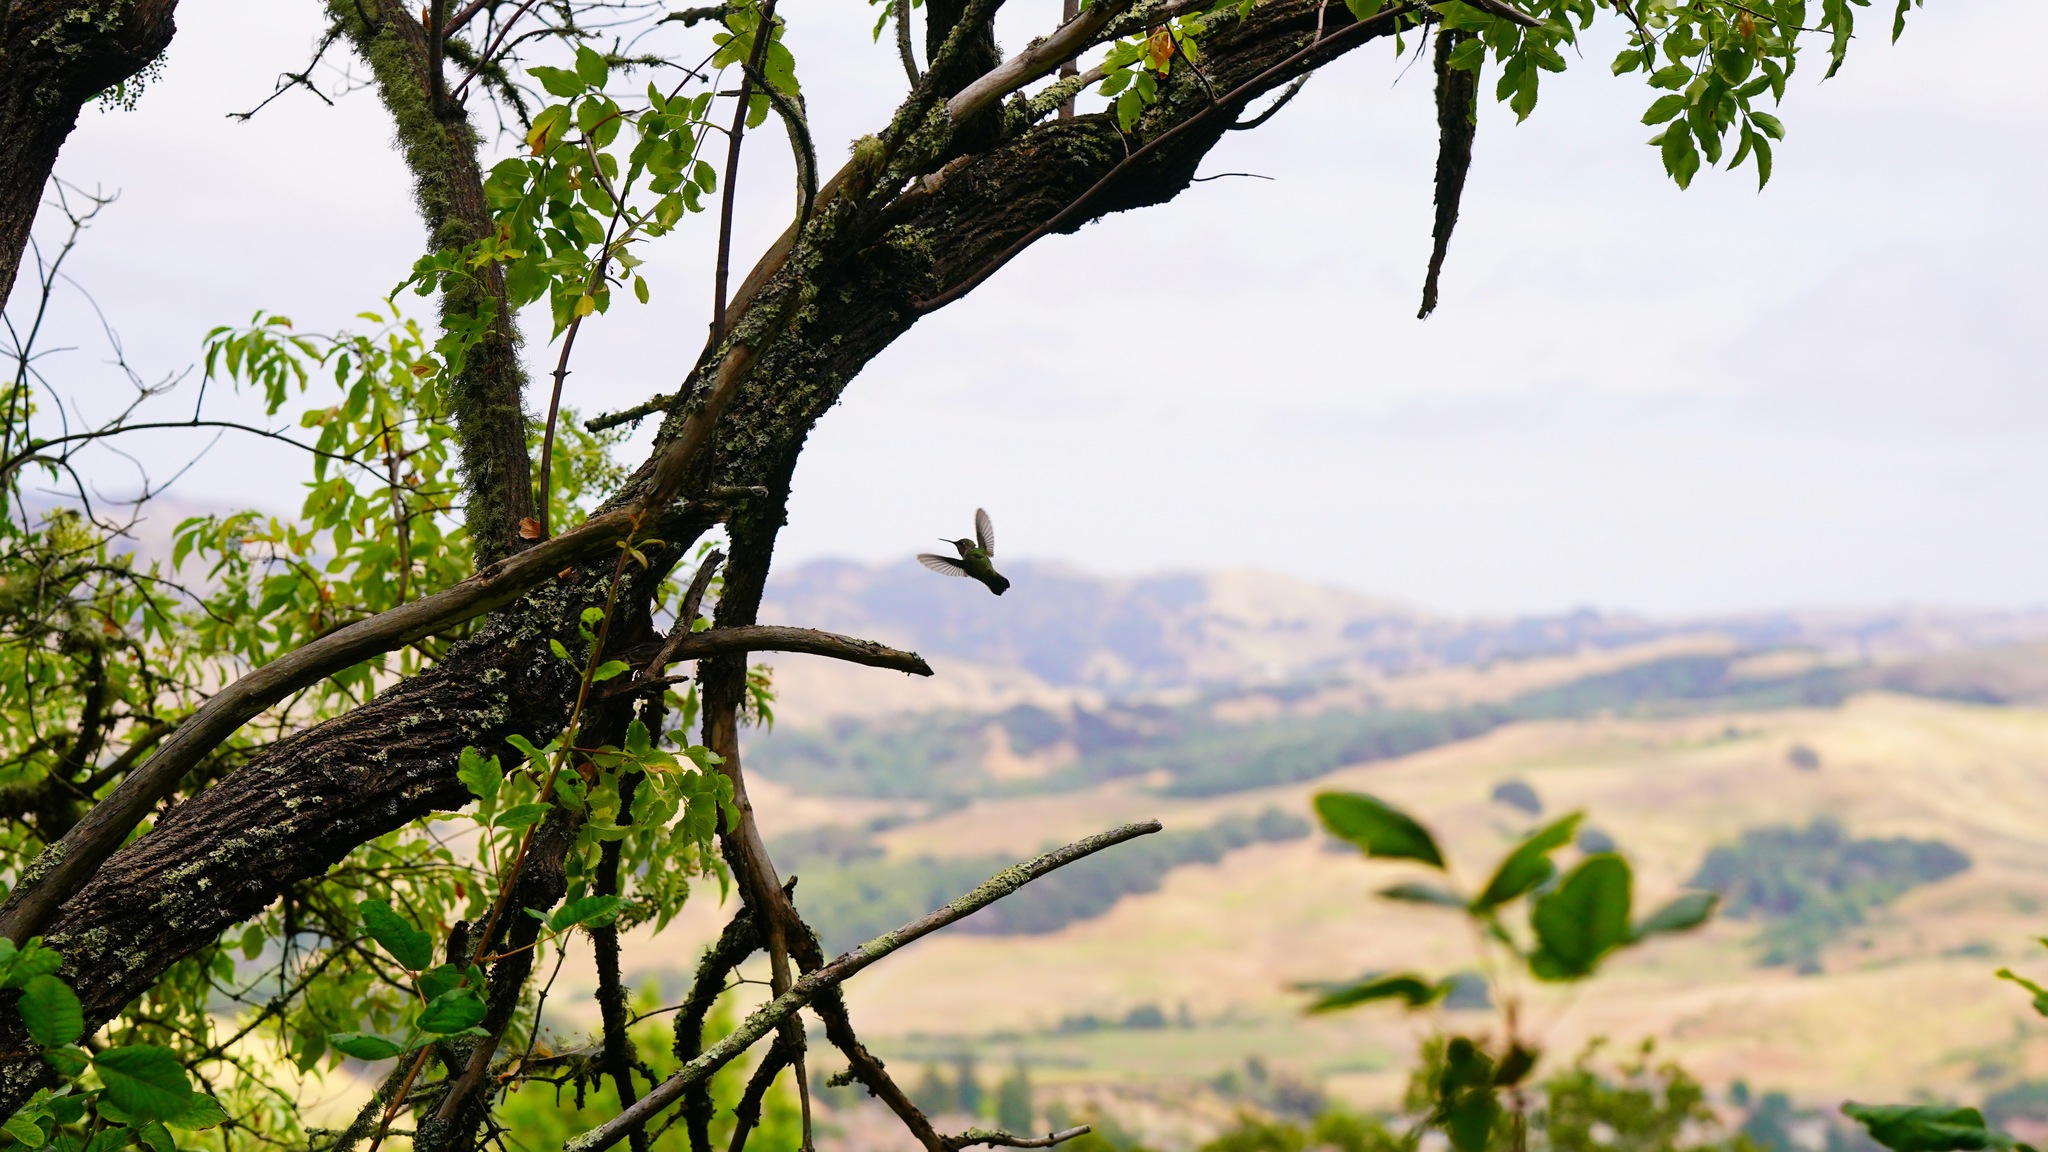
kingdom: Animalia
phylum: Chordata
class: Aves
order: Apodiformes
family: Trochilidae
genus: Calypte
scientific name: Calypte anna
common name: Anna's hummingbird
